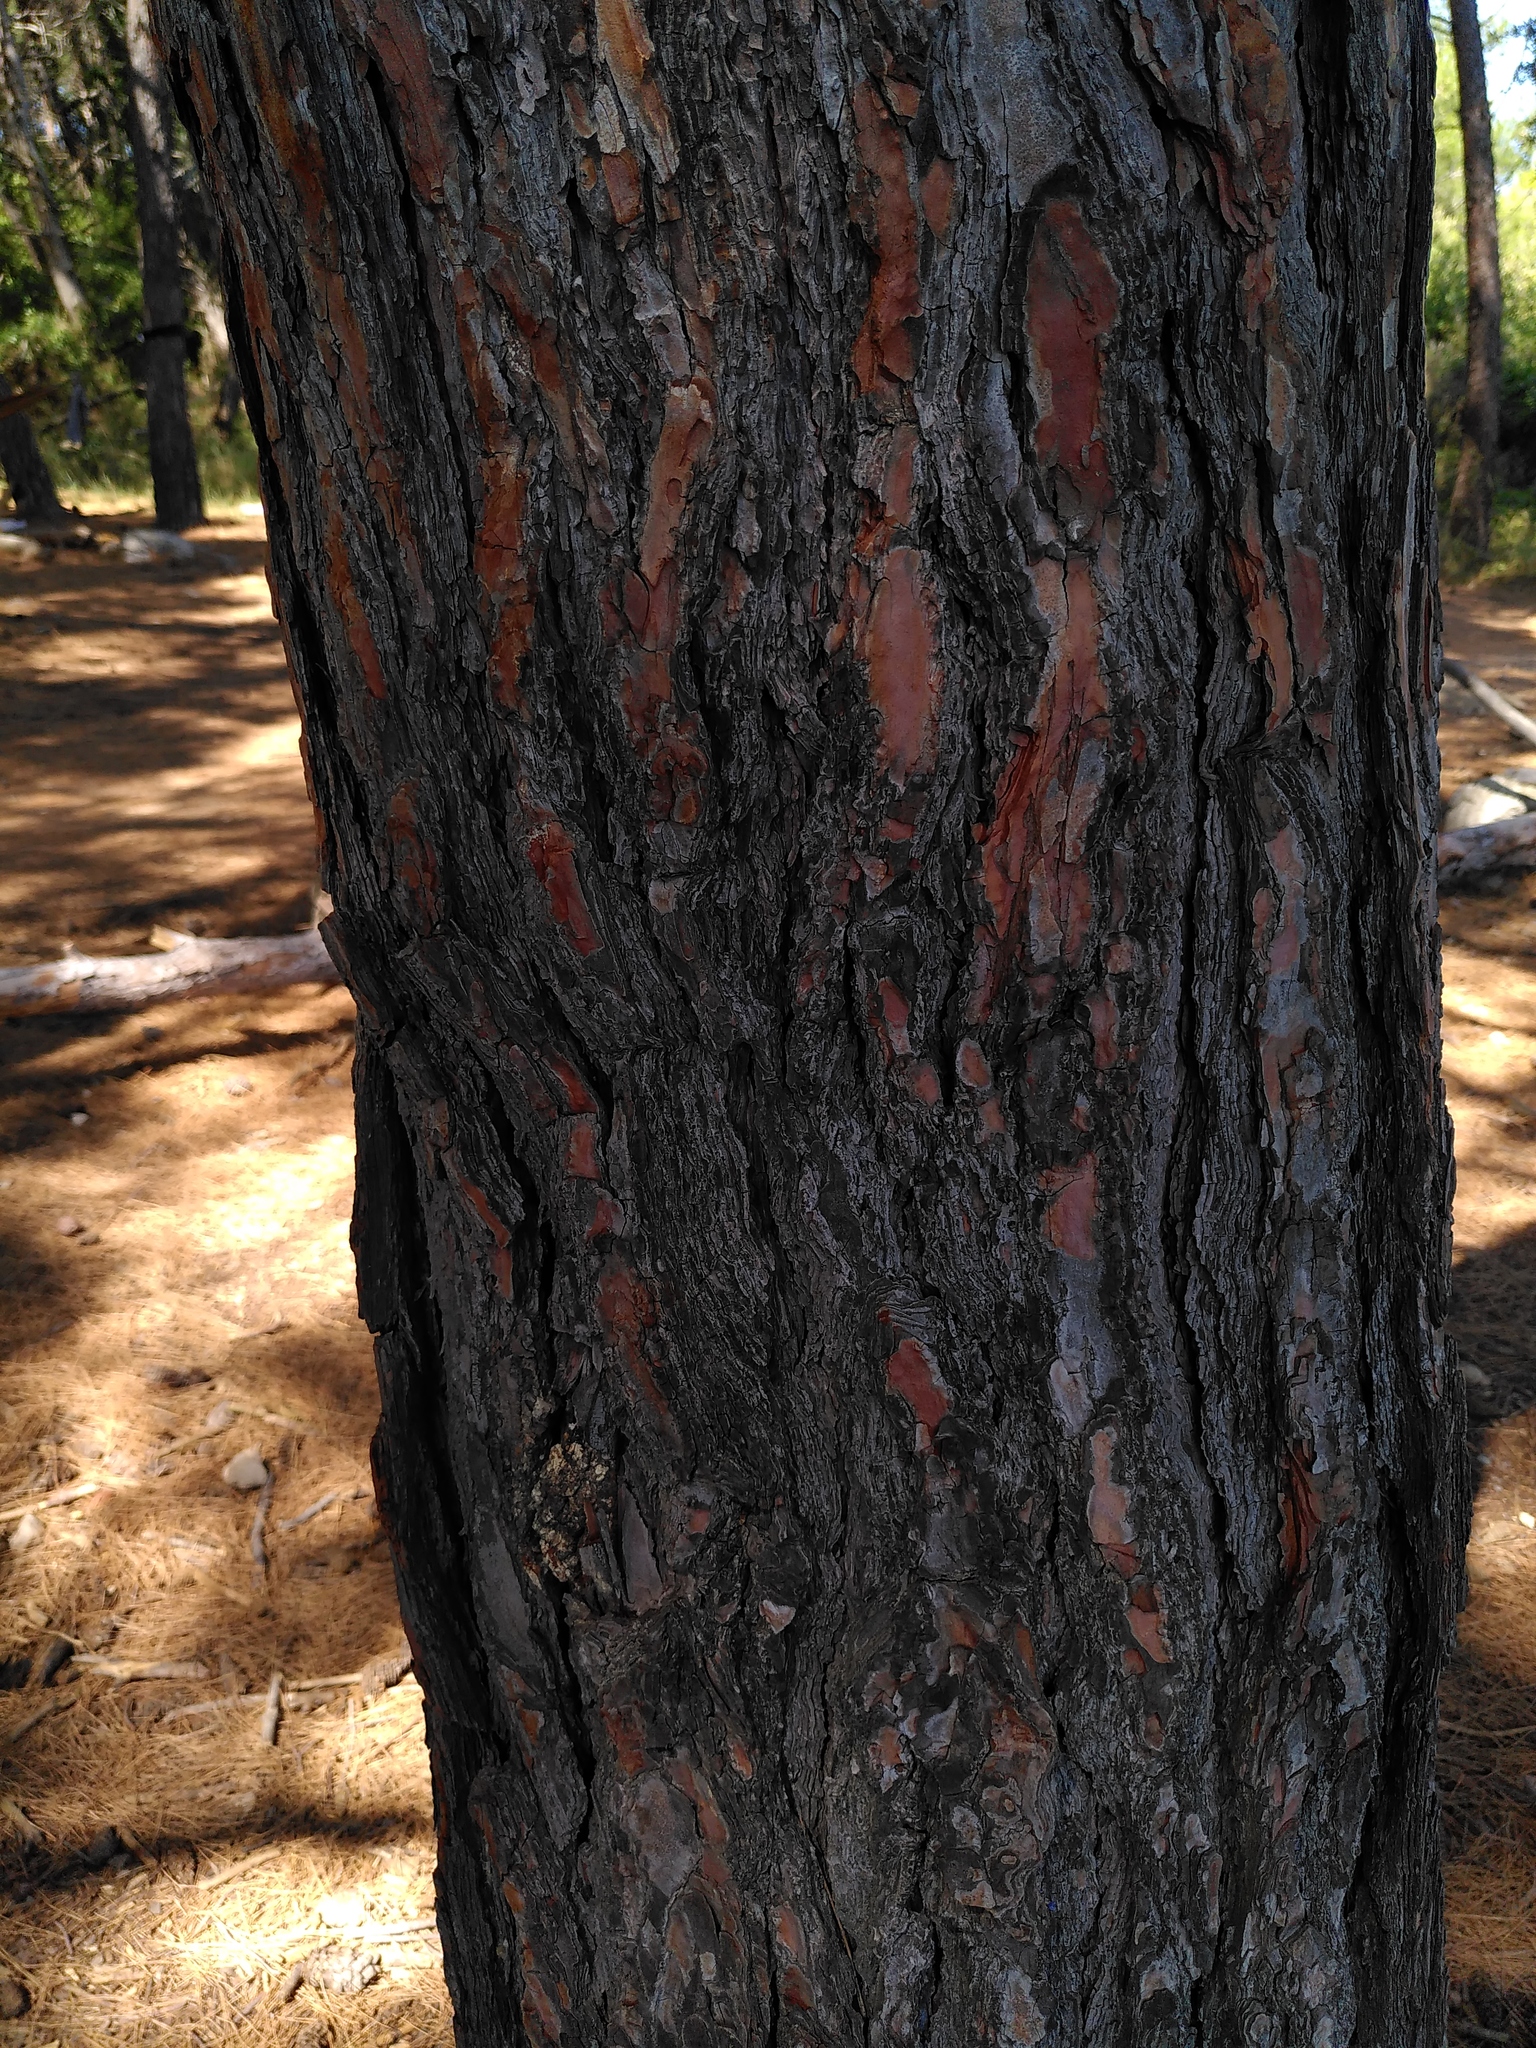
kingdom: Plantae
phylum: Tracheophyta
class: Pinopsida
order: Pinales
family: Pinaceae
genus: Pinus
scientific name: Pinus halepensis
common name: Aleppo pine
